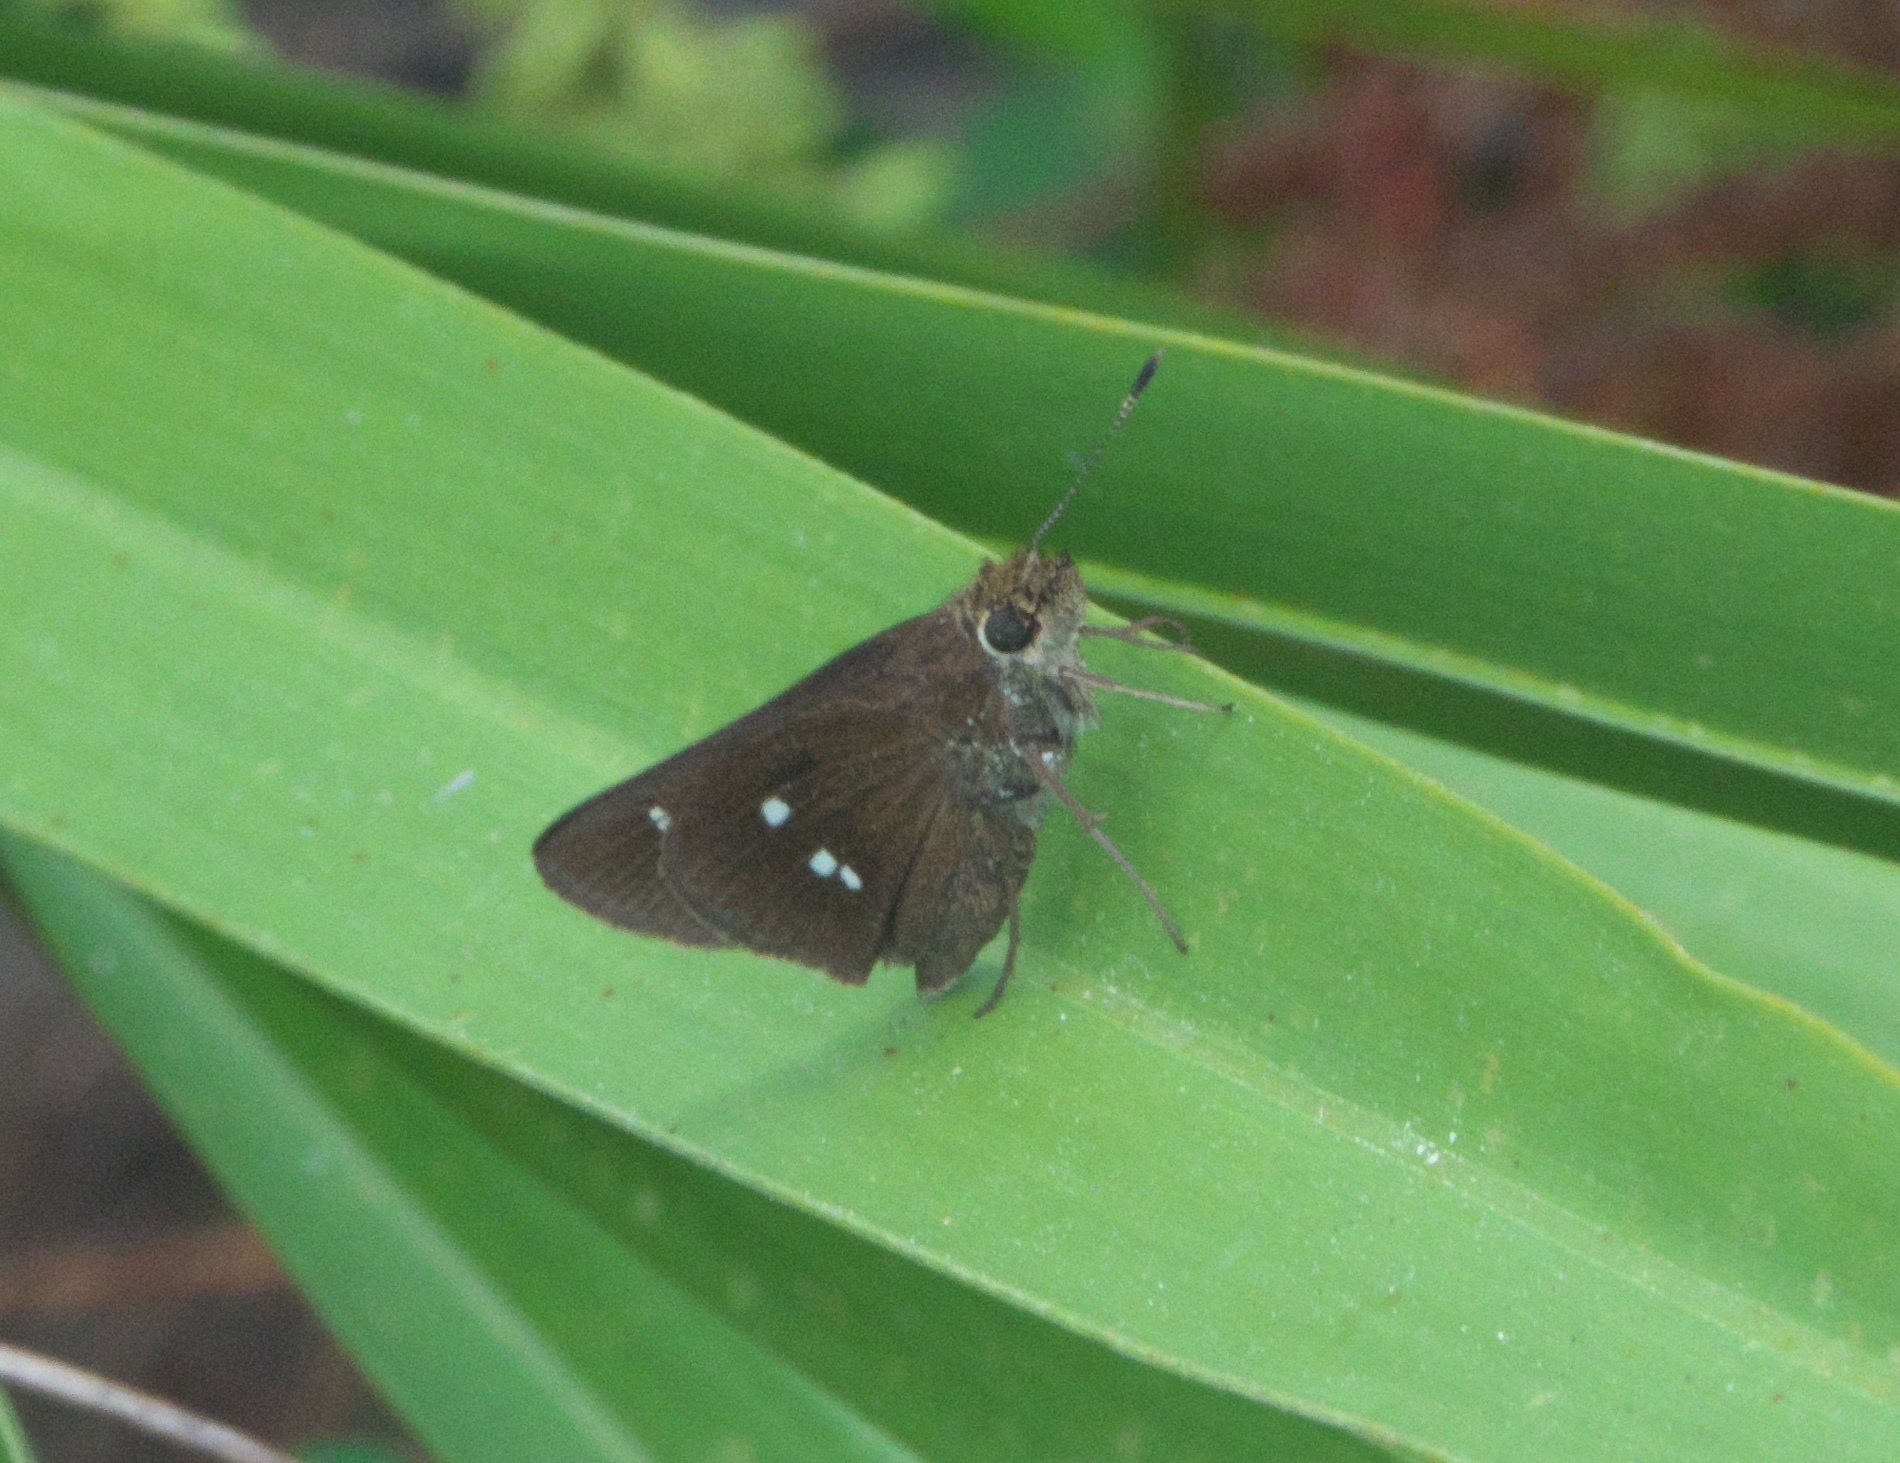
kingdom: Animalia
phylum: Arthropoda
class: Insecta
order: Lepidoptera
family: Hesperiidae
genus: Oligoria
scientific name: Oligoria maculata
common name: Twin-spot skipper
